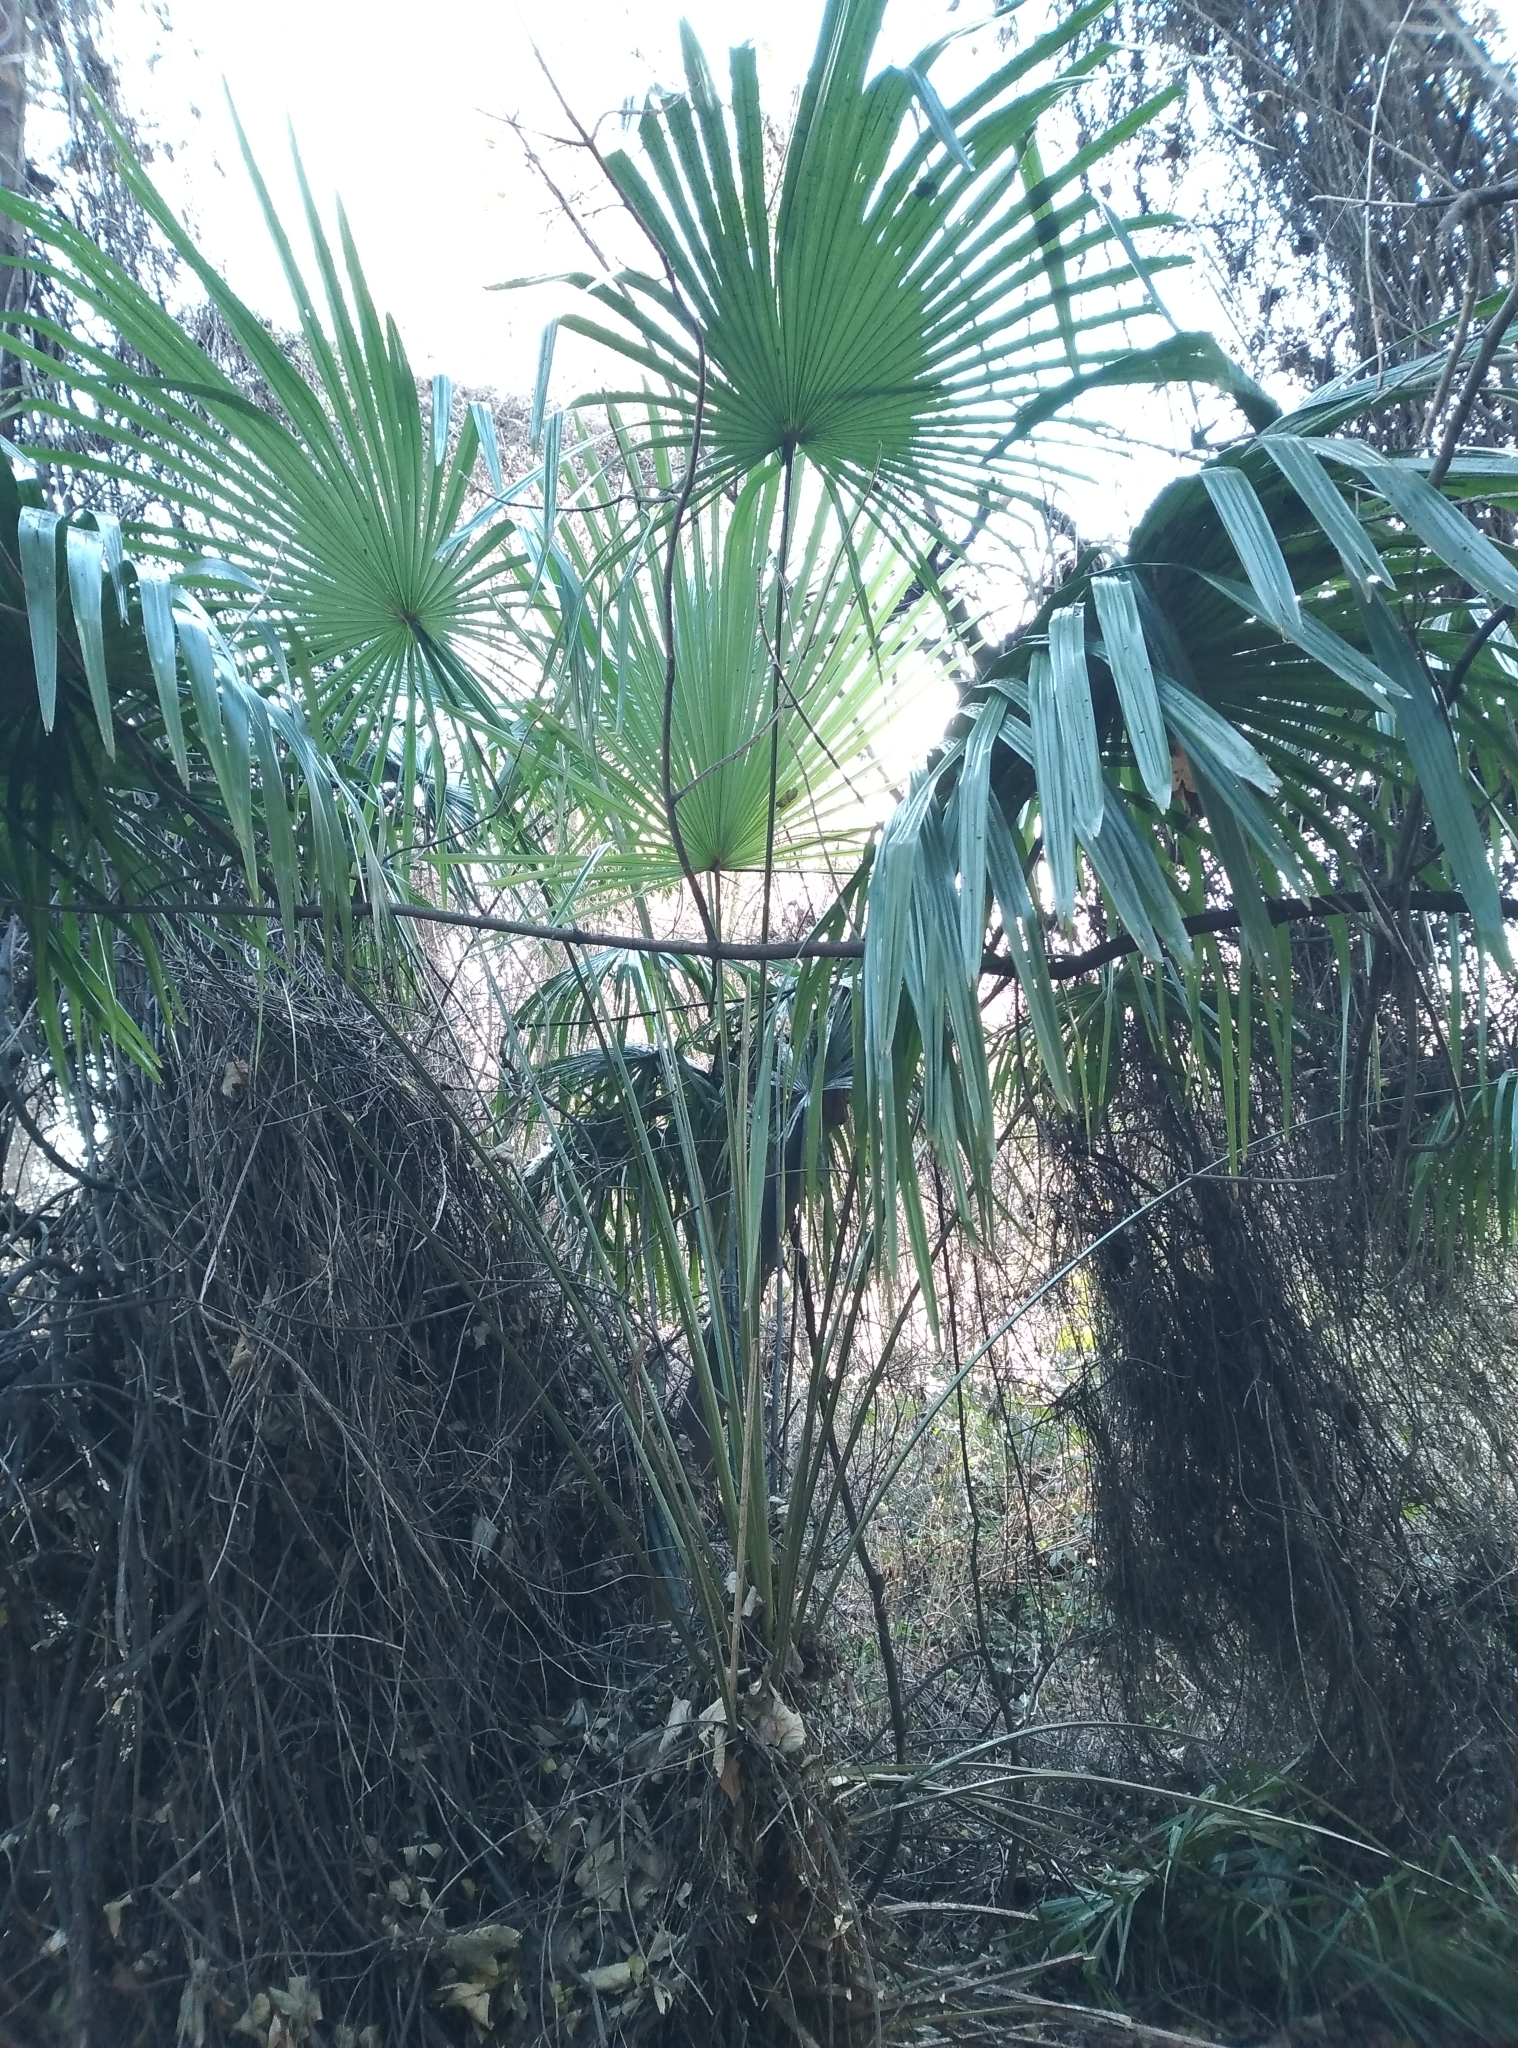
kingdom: Plantae
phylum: Tracheophyta
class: Liliopsida
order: Arecales
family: Arecaceae
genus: Trachycarpus
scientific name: Trachycarpus fortunei
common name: Chusan palm
